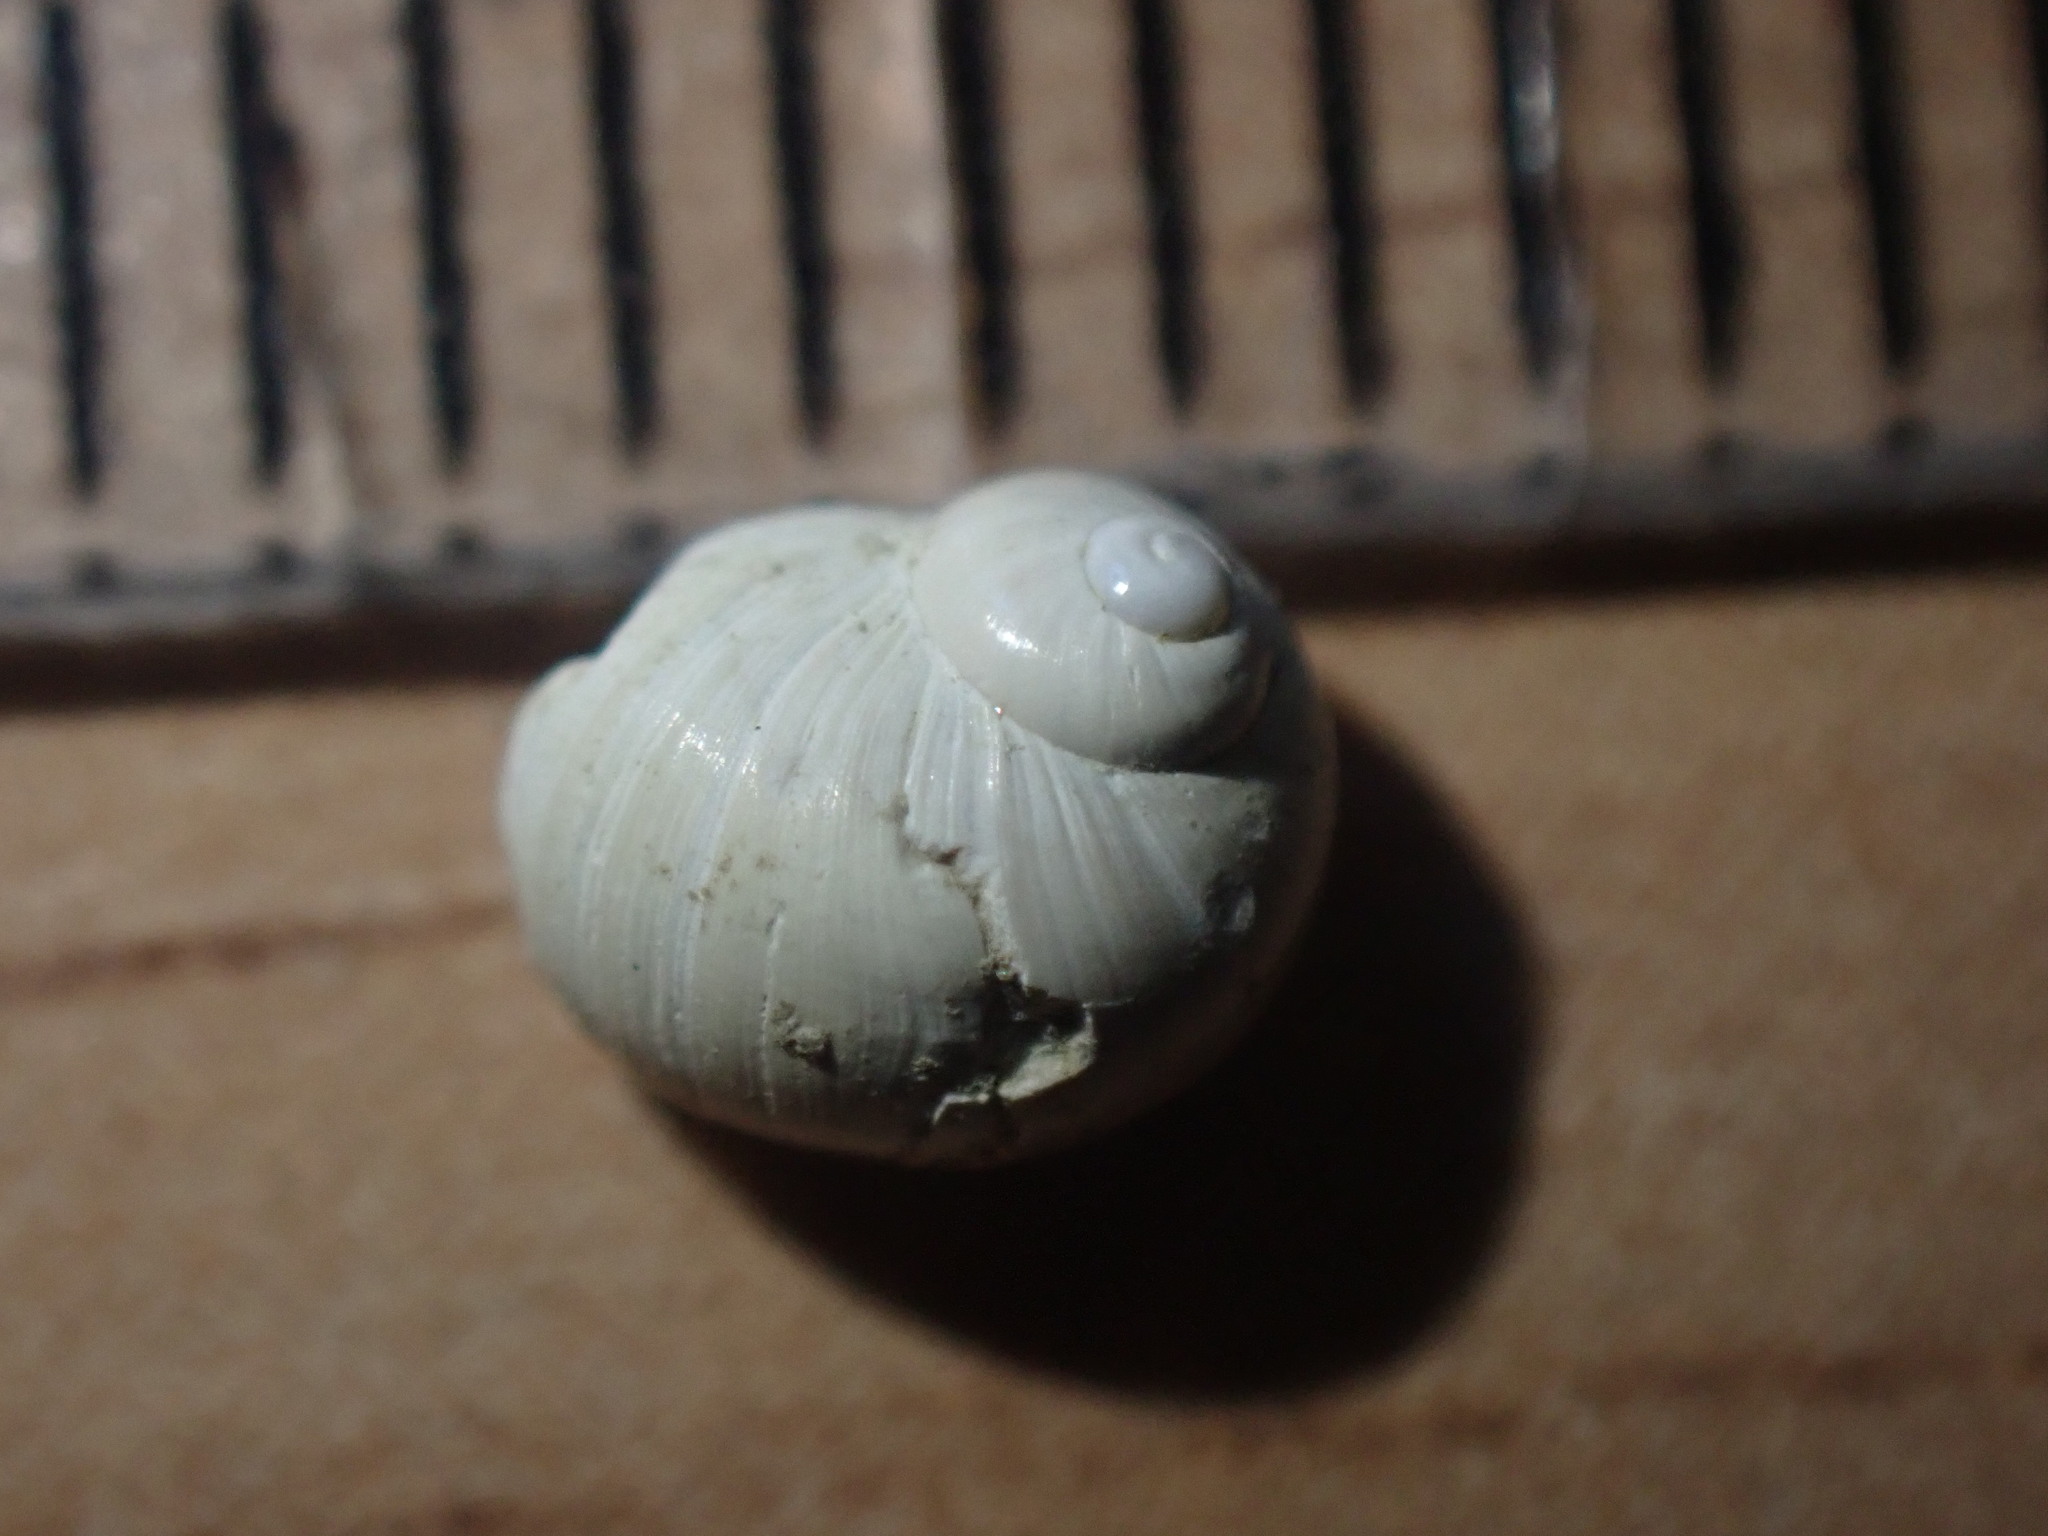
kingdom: Animalia
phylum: Mollusca
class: Gastropoda
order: Littorinimorpha
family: Naticidae
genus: Uberella
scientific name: Uberella barrierensis
